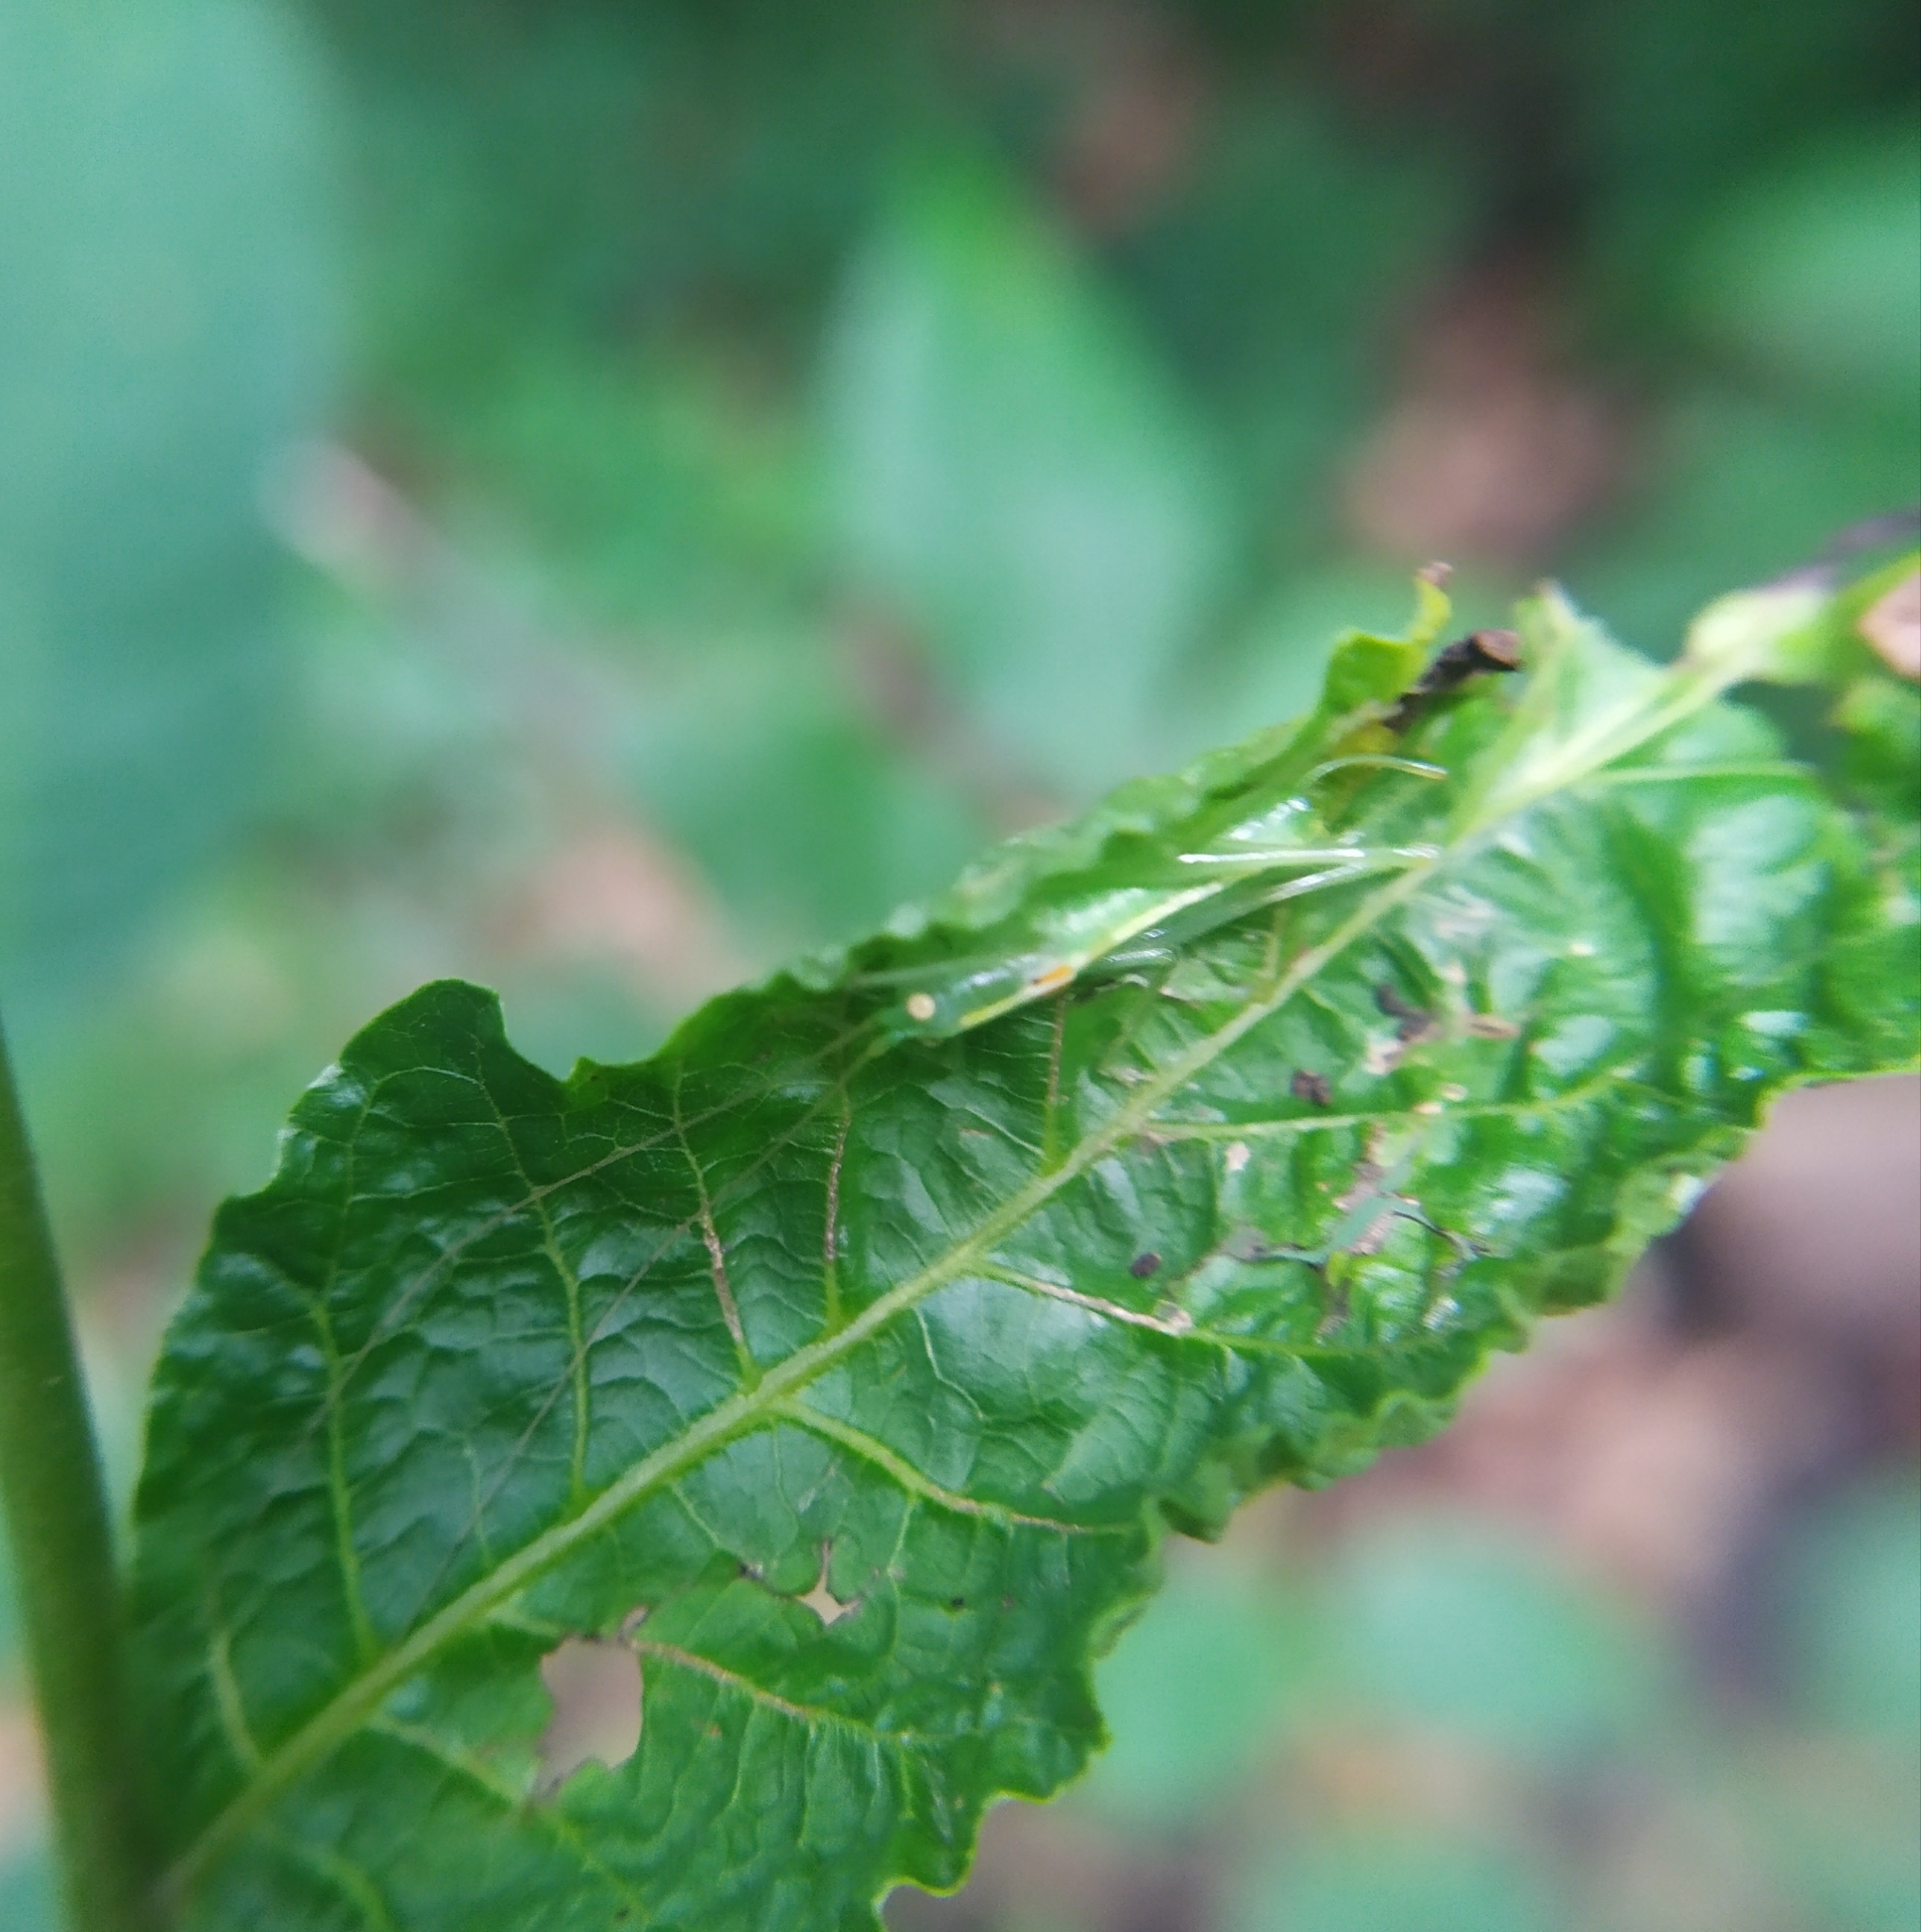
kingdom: Animalia
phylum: Arthropoda
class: Insecta
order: Orthoptera
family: Tettigoniidae
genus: Meconema
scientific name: Meconema meridionale
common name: Southern oak bush-cricket
